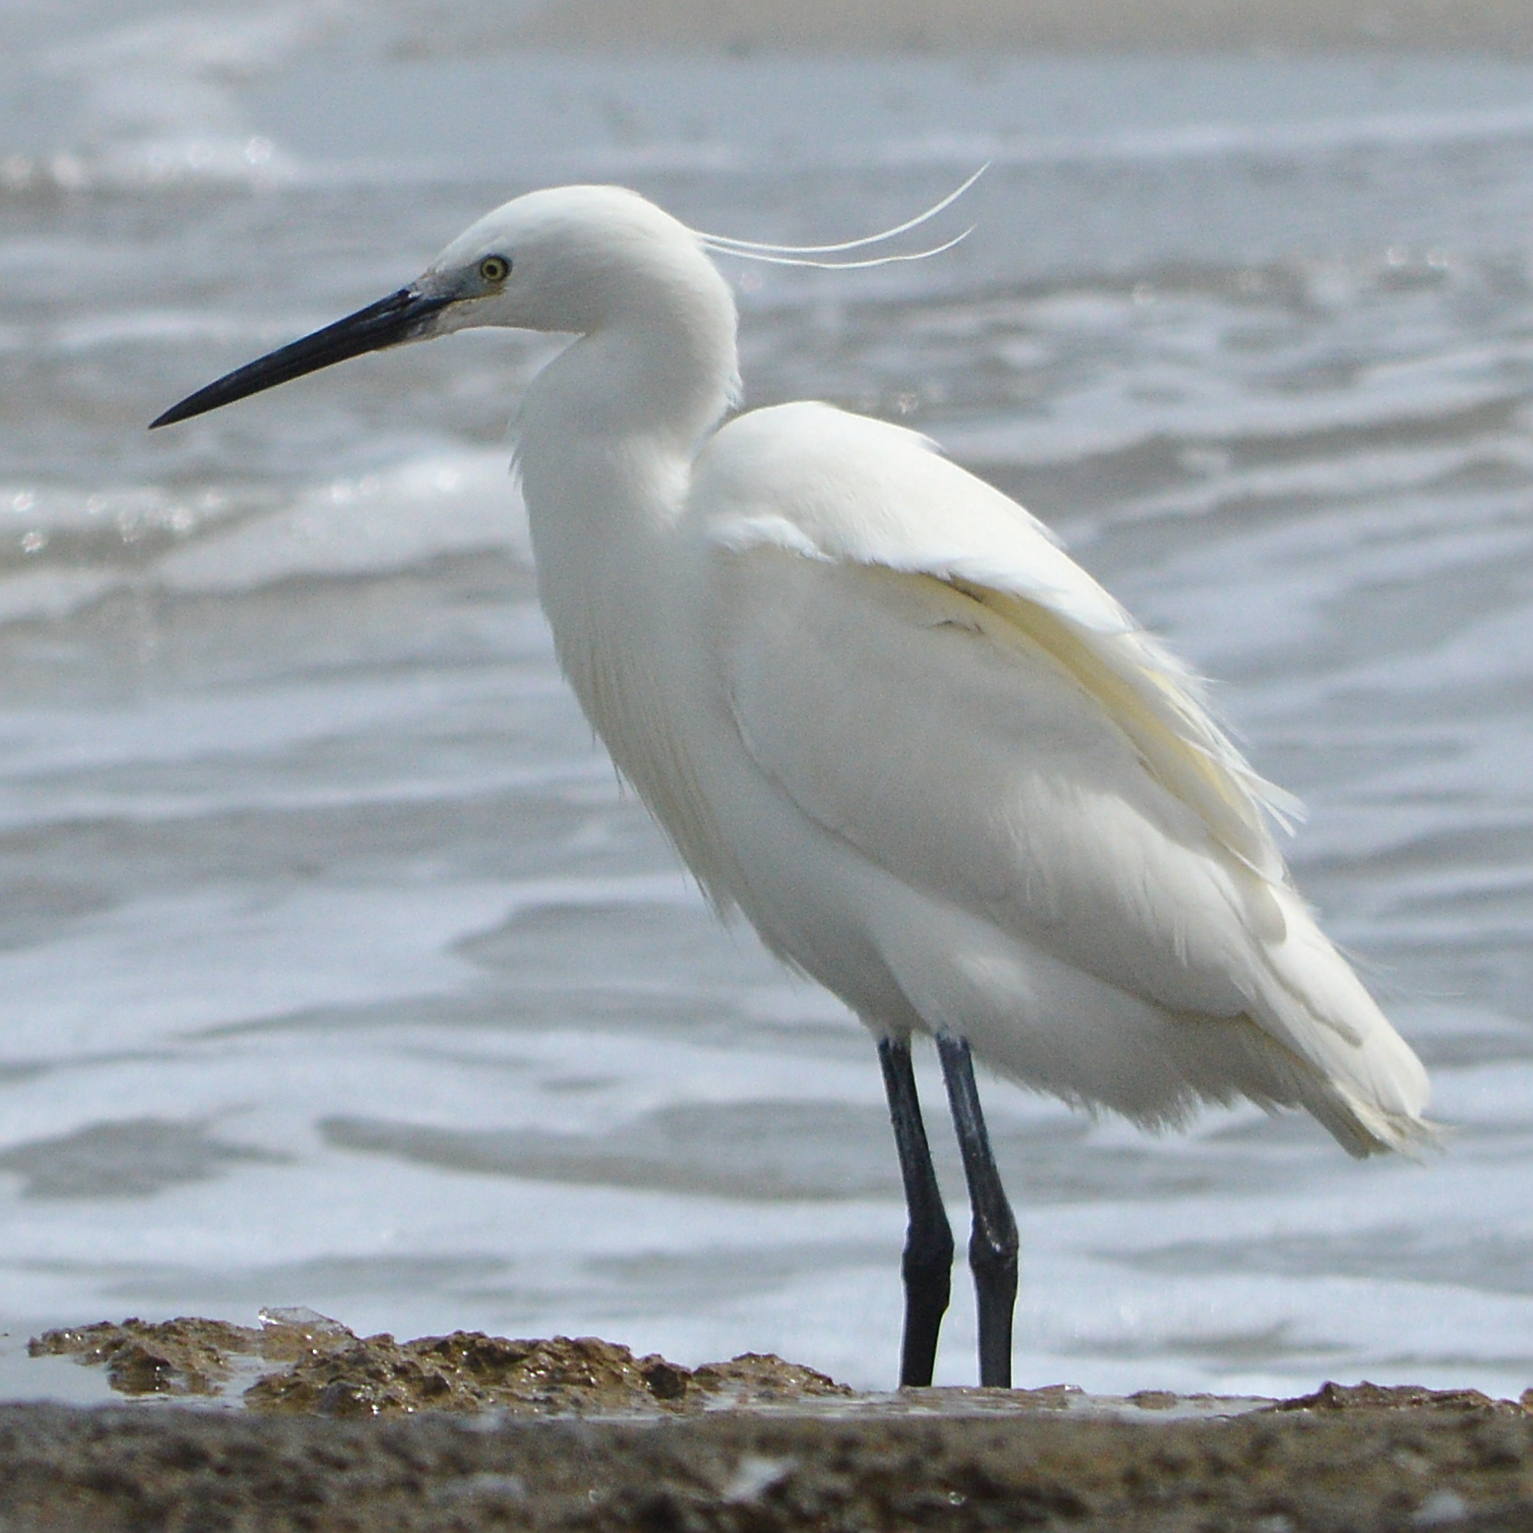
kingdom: Animalia
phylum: Chordata
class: Aves
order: Pelecaniformes
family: Ardeidae
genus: Egretta
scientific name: Egretta garzetta
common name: Little egret
